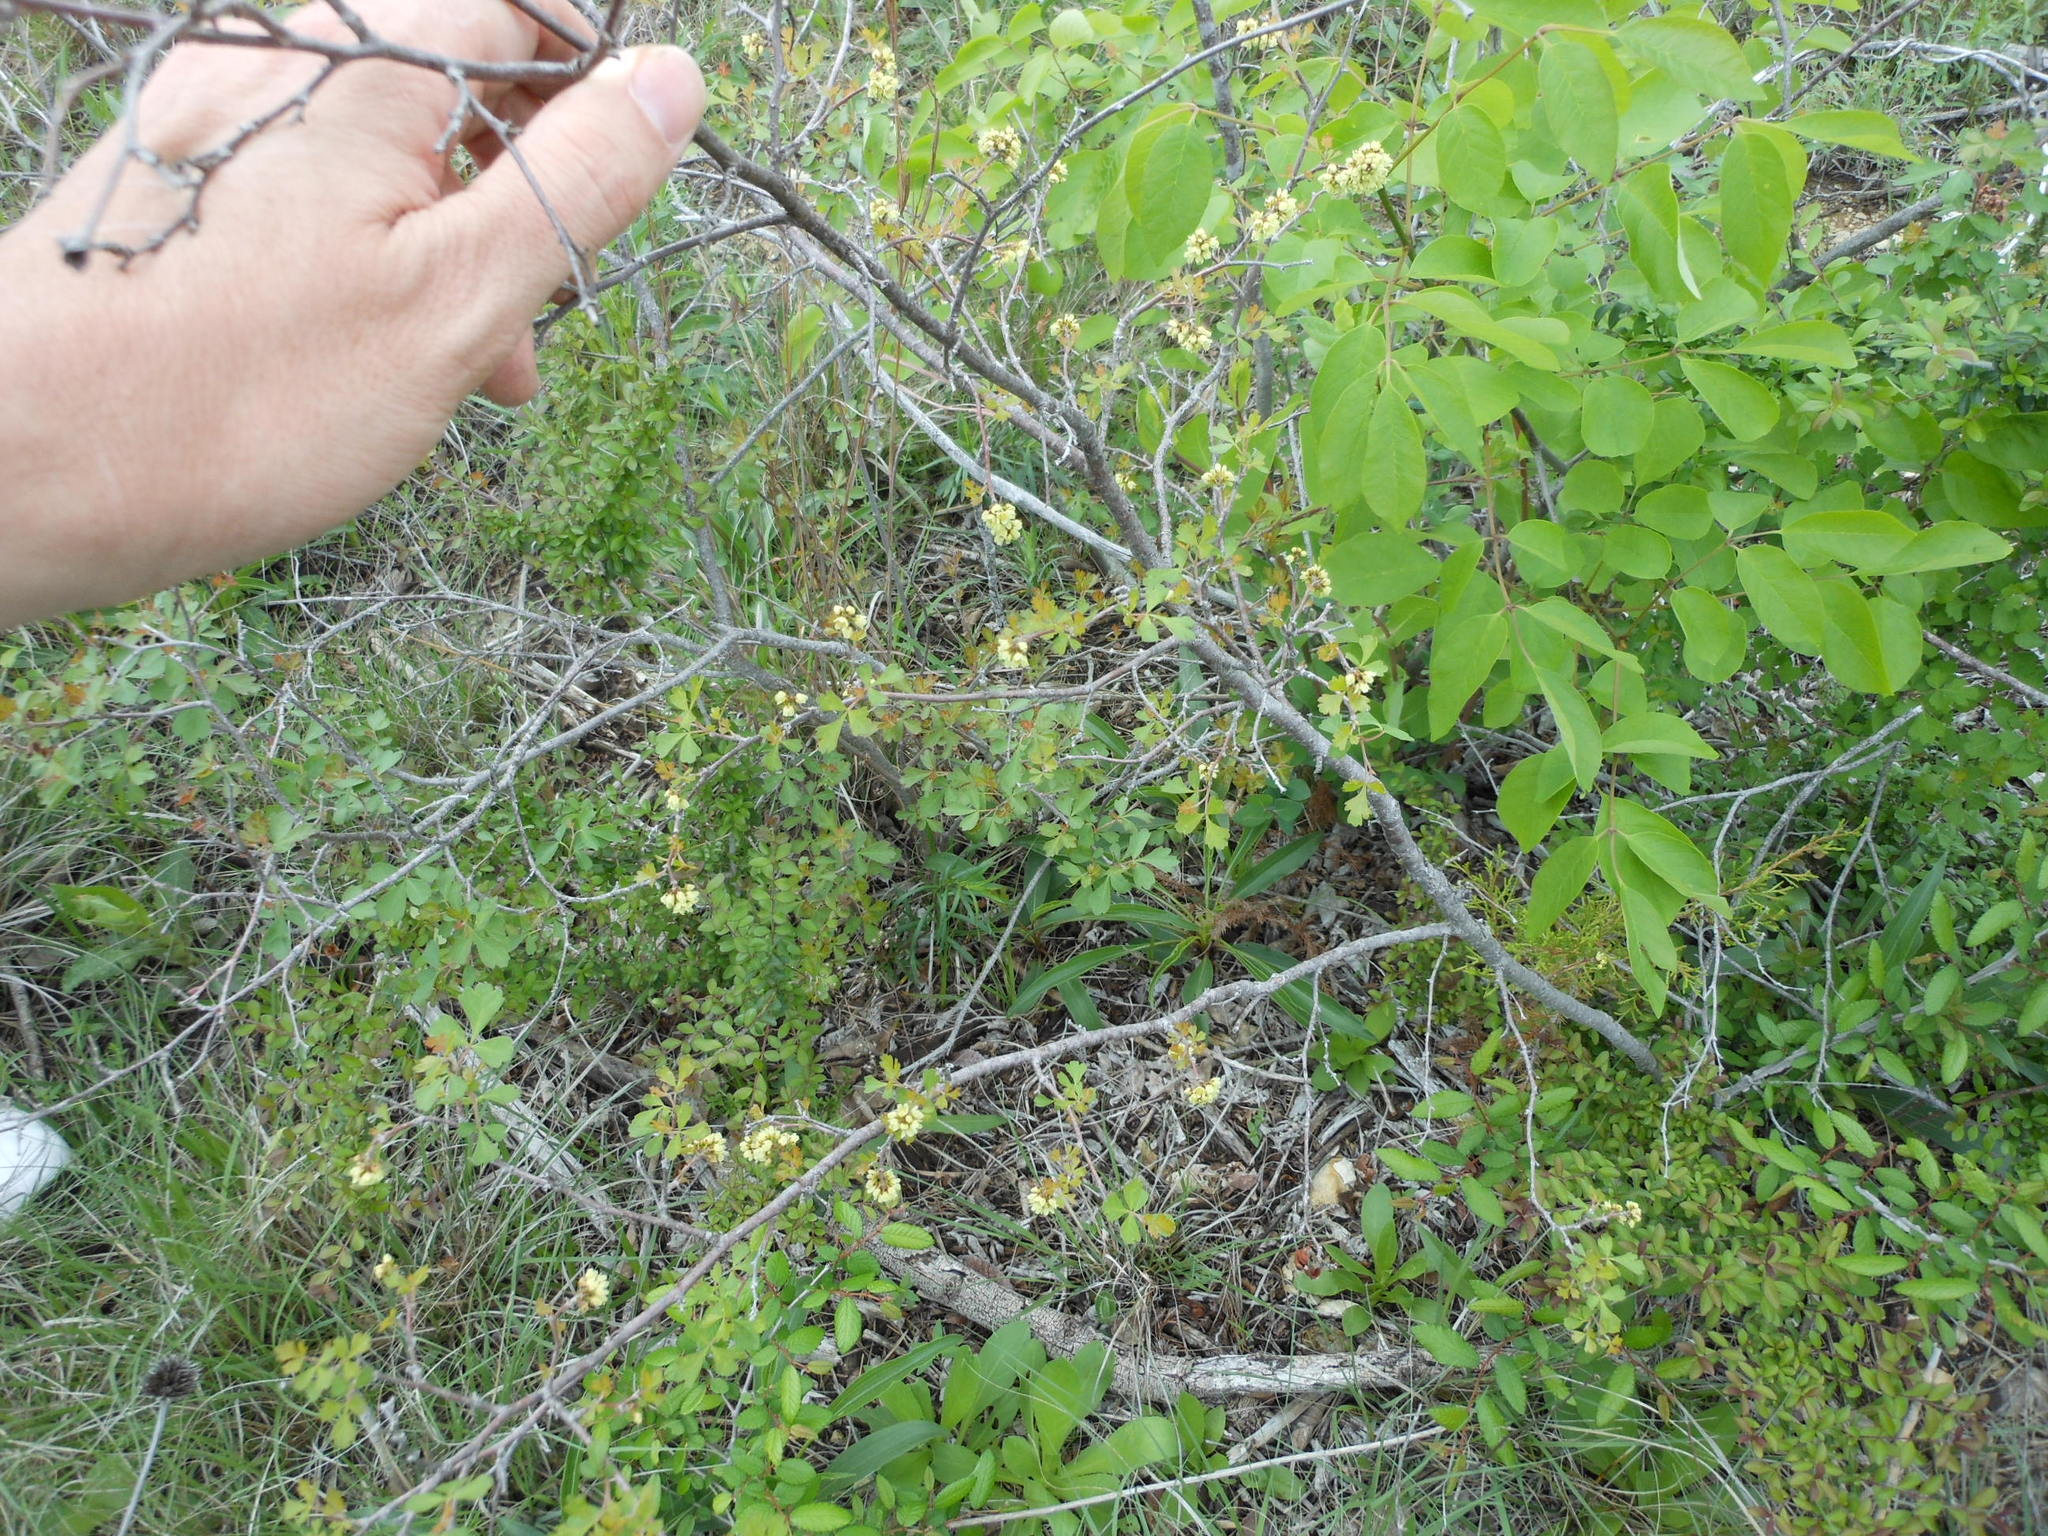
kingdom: Plantae
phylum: Tracheophyta
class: Magnoliopsida
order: Sapindales
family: Anacardiaceae
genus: Rhus
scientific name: Rhus aromatica
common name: Aromatic sumac
